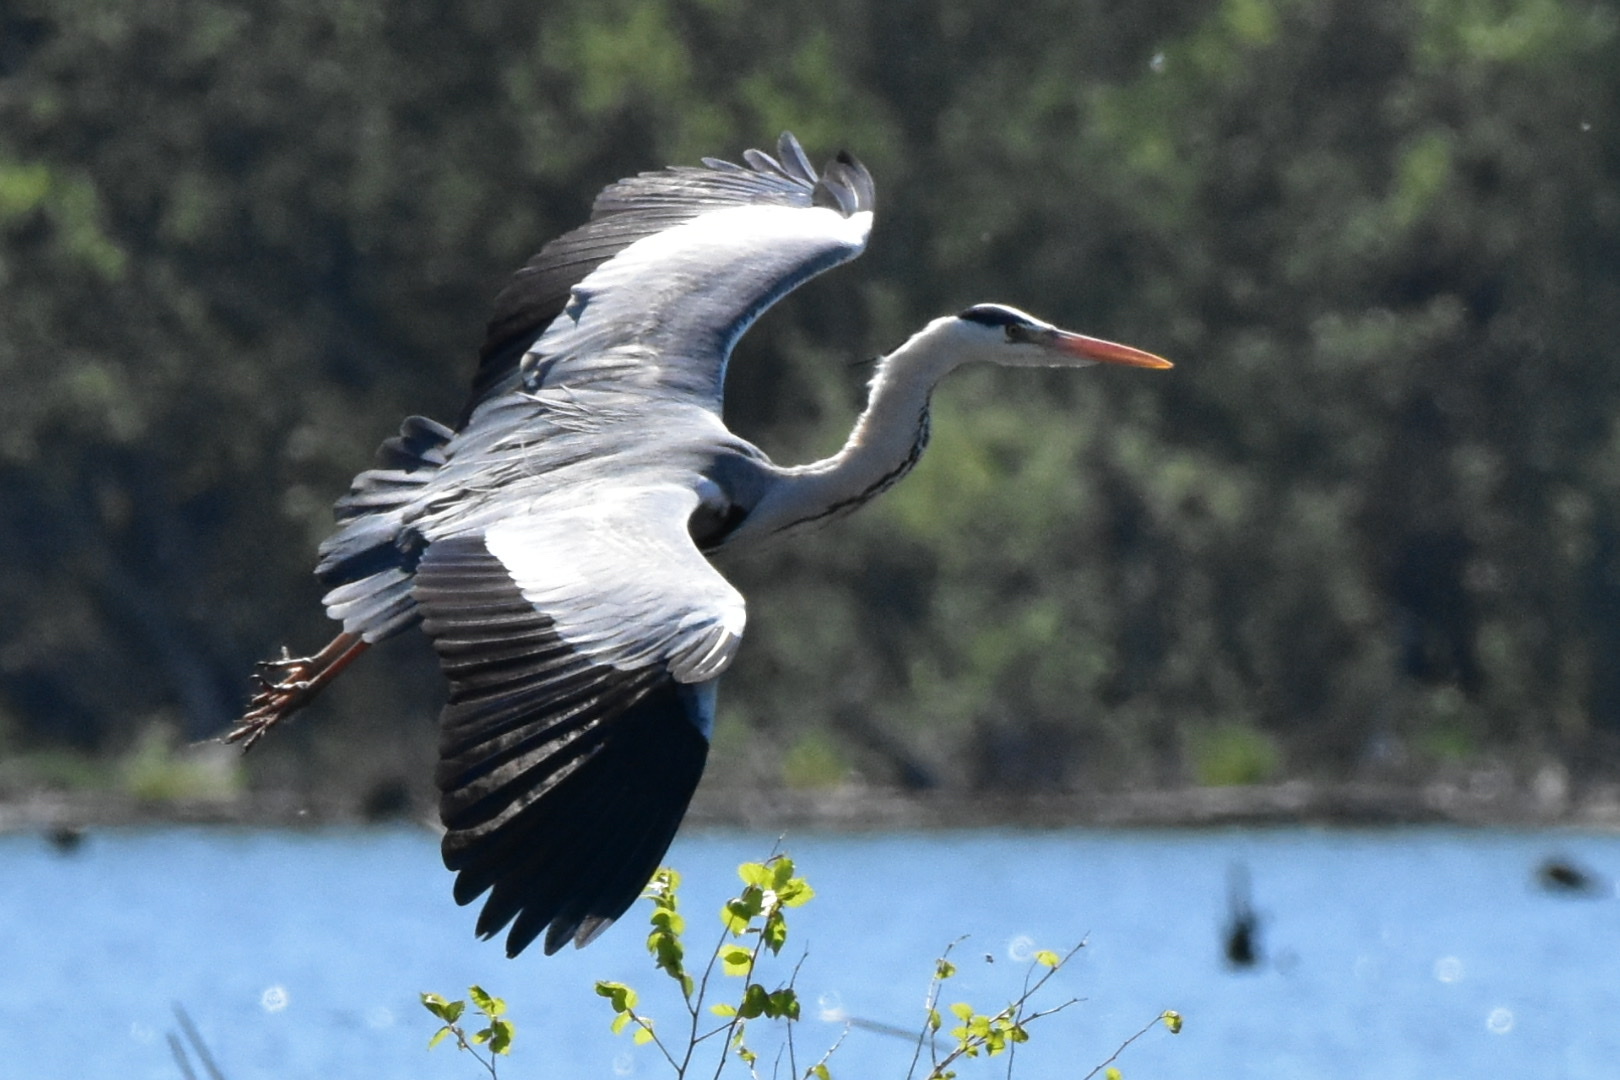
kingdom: Animalia
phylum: Chordata
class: Aves
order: Pelecaniformes
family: Ardeidae
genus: Ardea
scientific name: Ardea cinerea
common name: Grey heron
